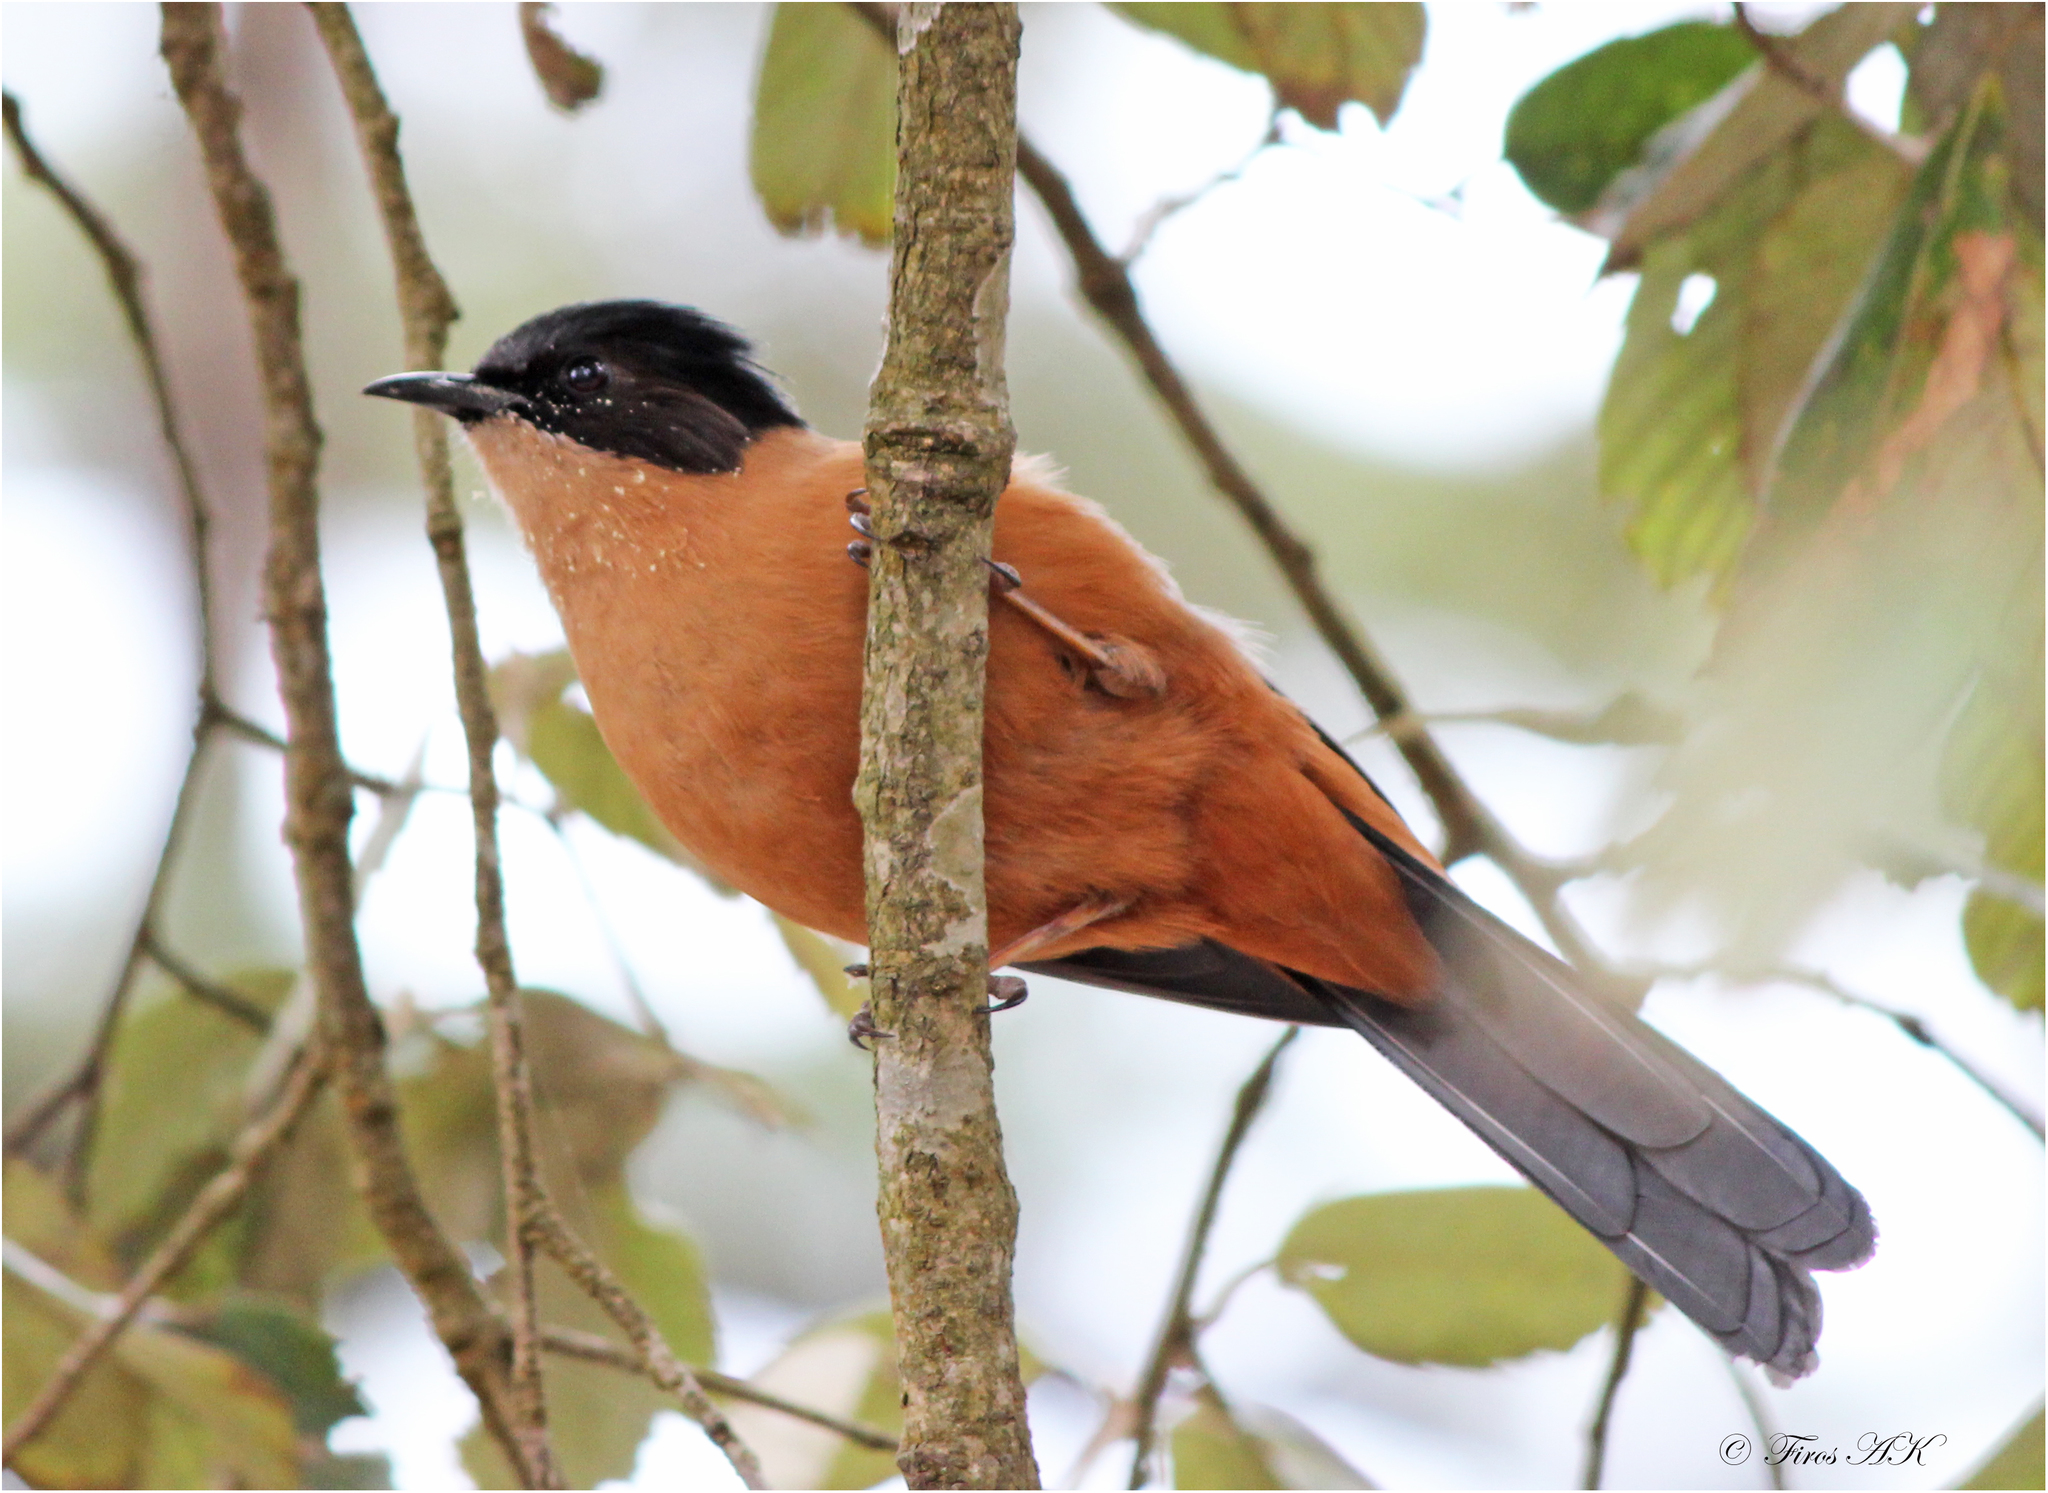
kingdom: Animalia
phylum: Chordata
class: Aves
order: Passeriformes
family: Leiothrichidae
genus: Heterophasia
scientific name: Heterophasia capistrata
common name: Rufous sibia
